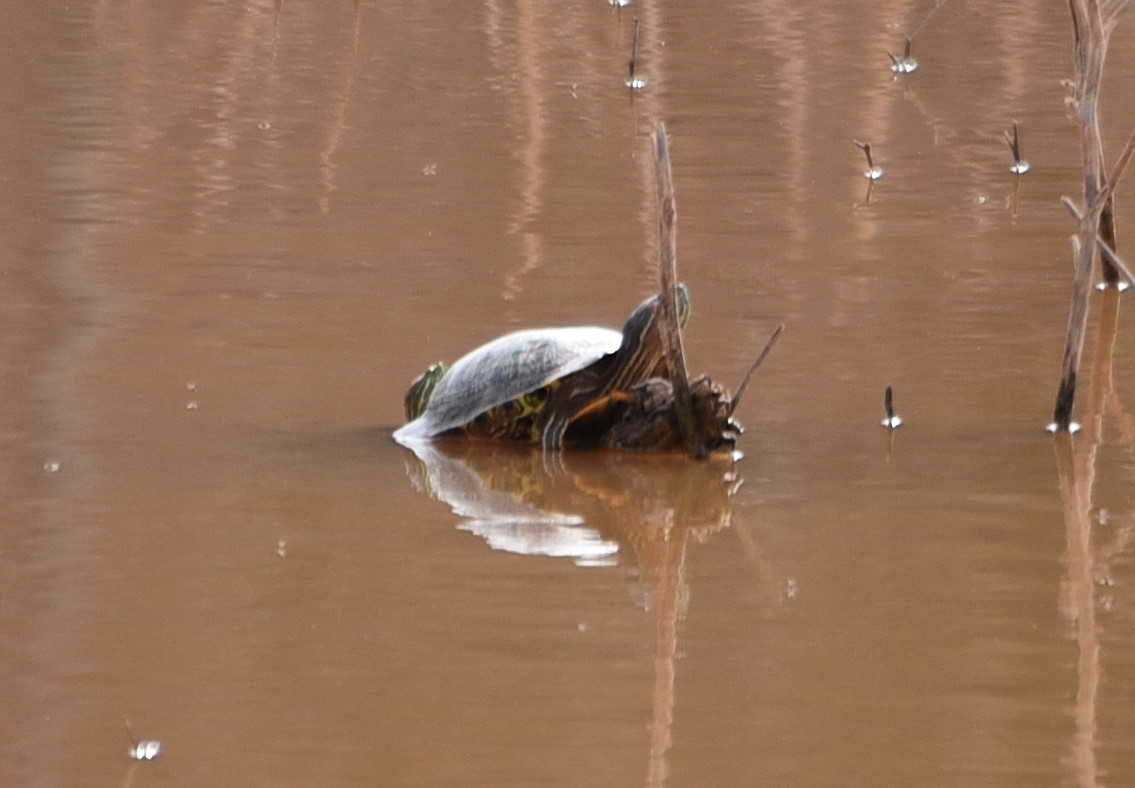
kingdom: Animalia
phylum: Chordata
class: Testudines
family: Emydidae
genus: Trachemys
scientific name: Trachemys scripta
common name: Slider
